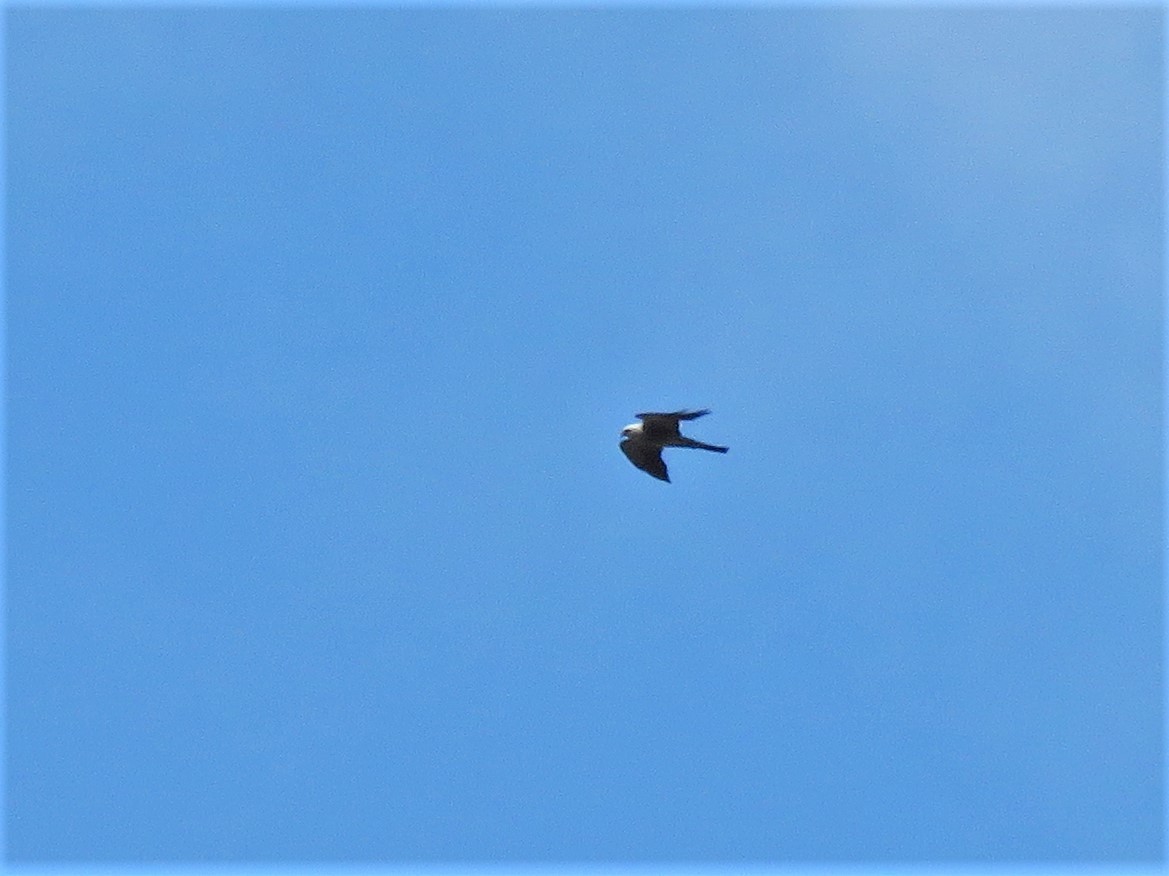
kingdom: Animalia
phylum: Chordata
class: Aves
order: Accipitriformes
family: Accipitridae
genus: Ictinia
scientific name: Ictinia mississippiensis
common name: Mississippi kite
